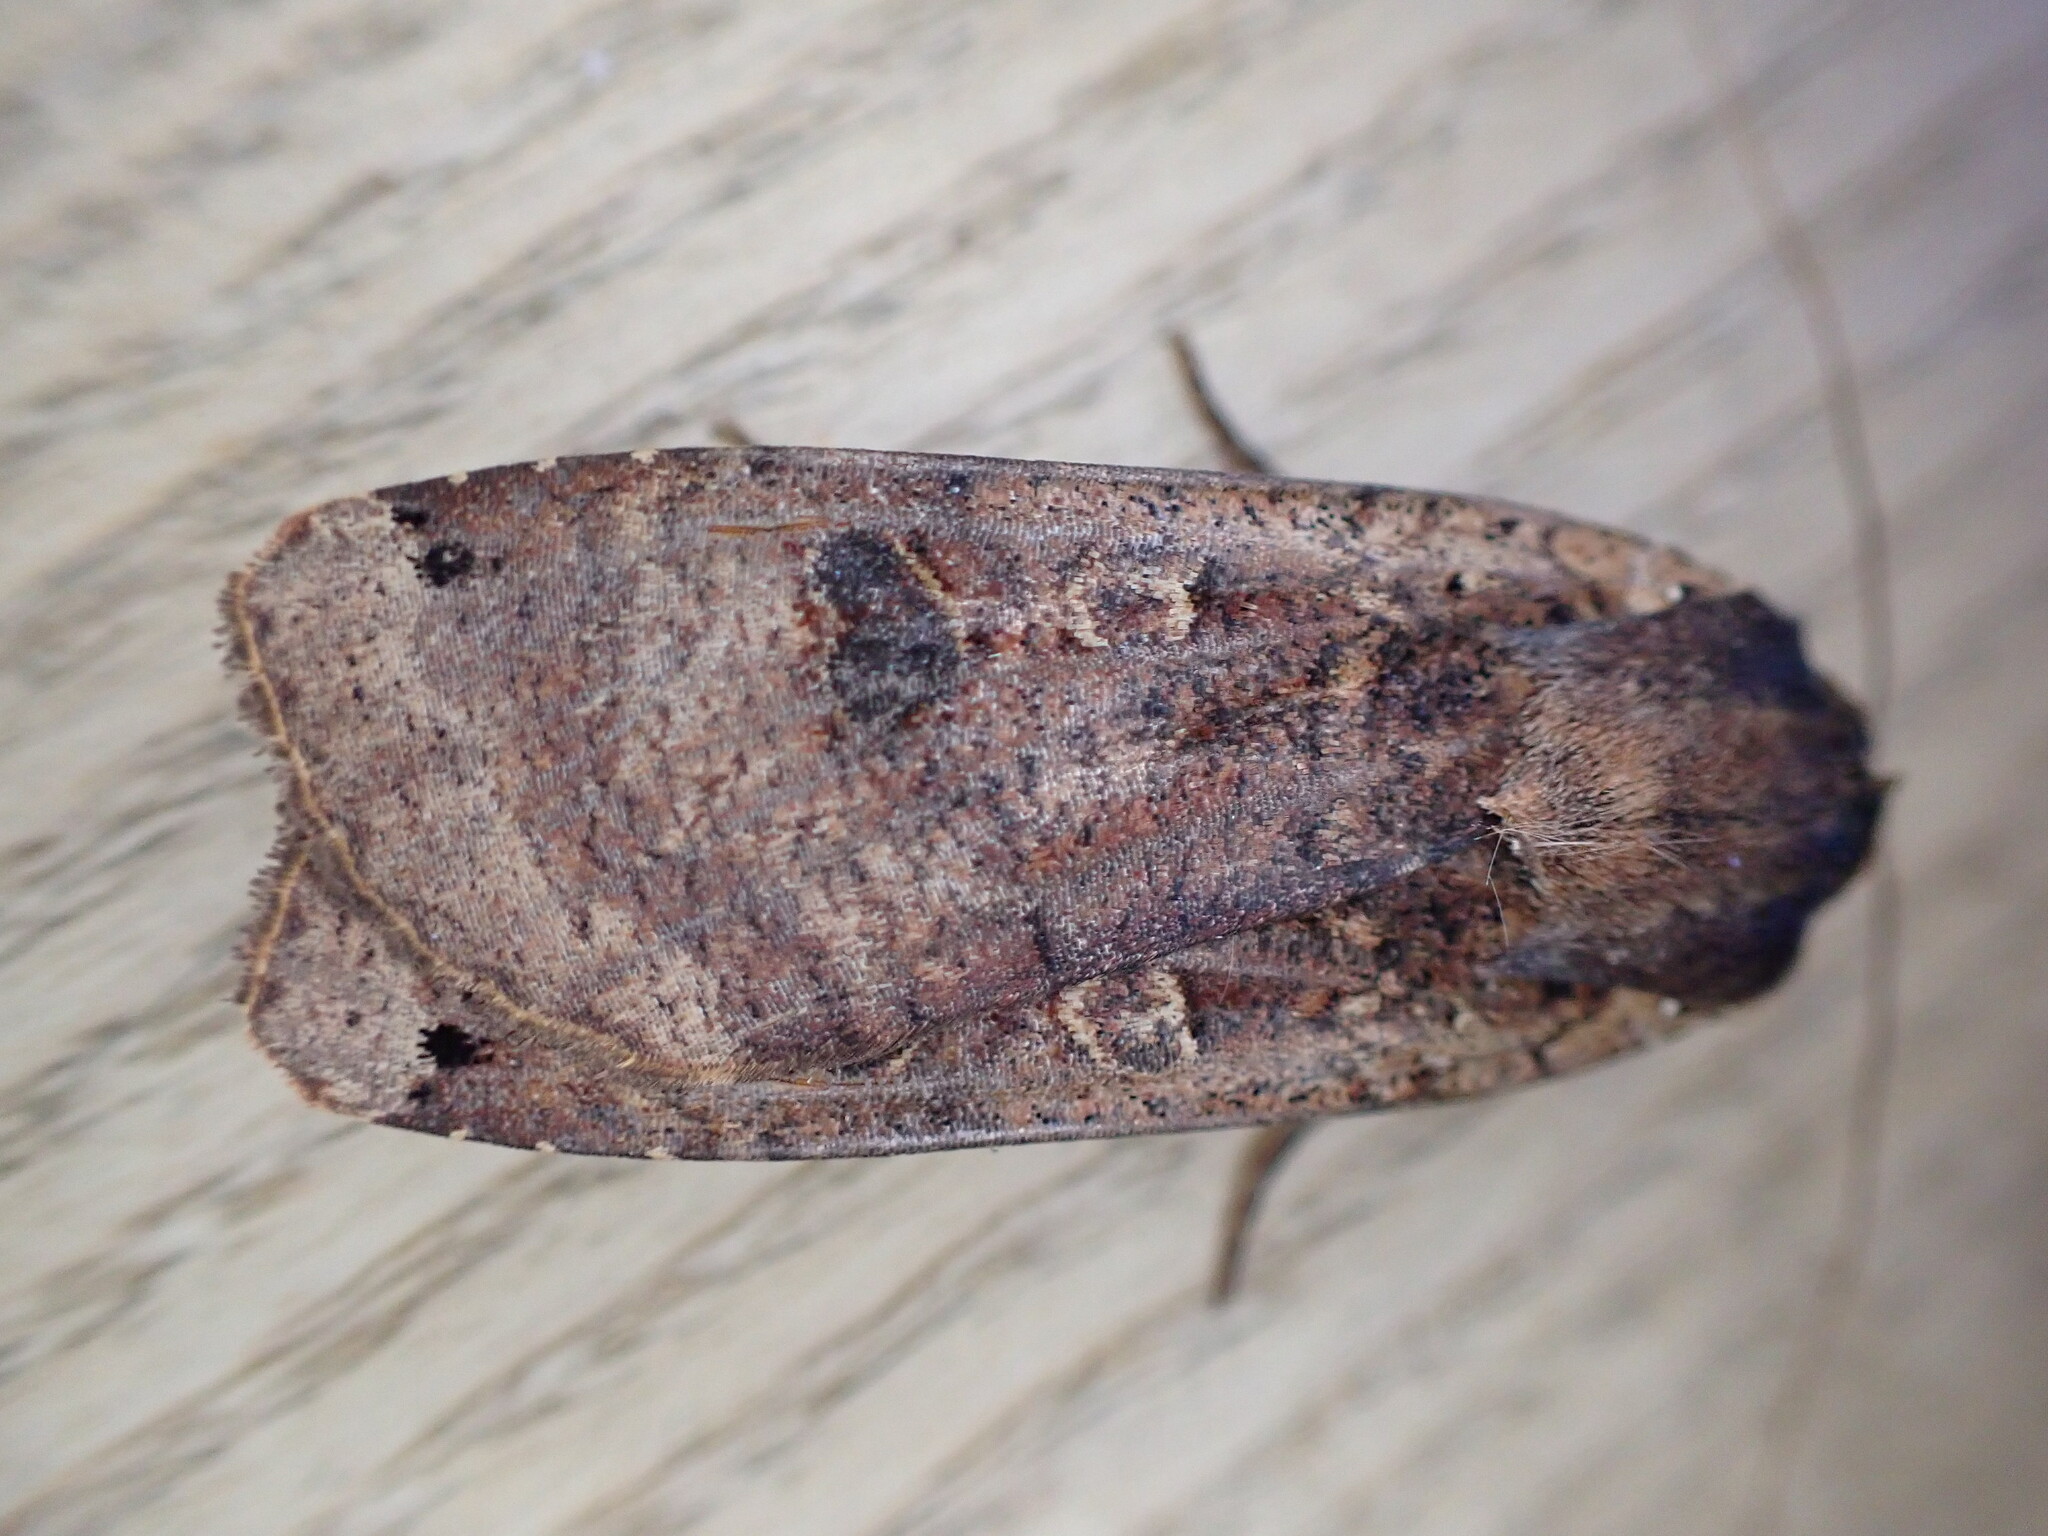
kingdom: Animalia
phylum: Arthropoda
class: Insecta
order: Lepidoptera
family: Noctuidae
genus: Noctua
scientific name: Noctua pronuba
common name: Large yellow underwing
